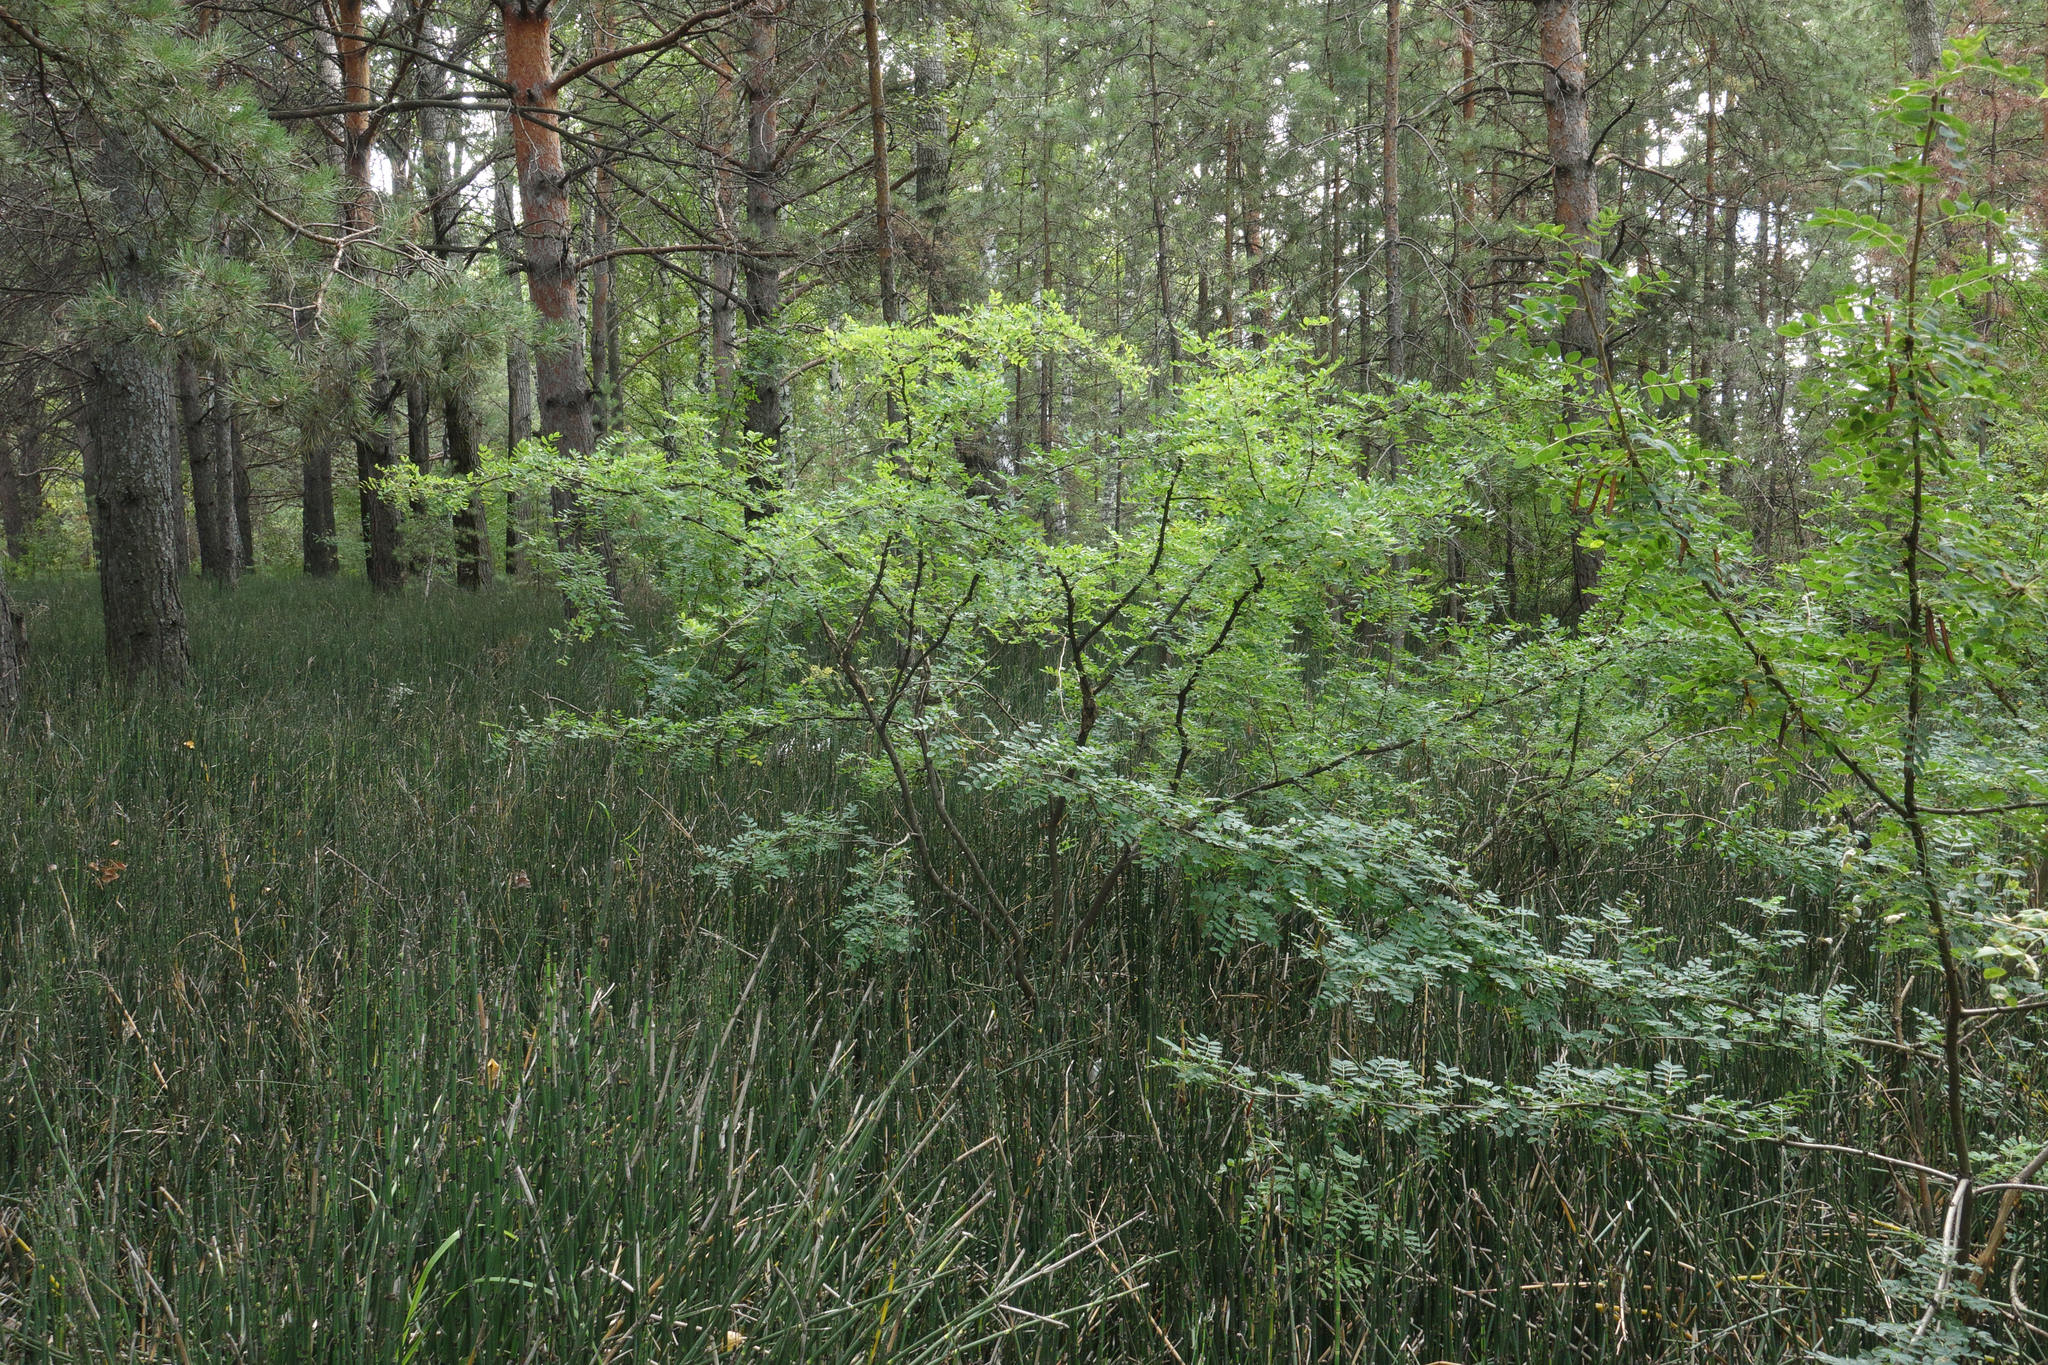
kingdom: Plantae
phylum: Tracheophyta
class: Magnoliopsida
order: Fabales
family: Fabaceae
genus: Caragana
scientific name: Caragana arborescens
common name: Siberian peashrub
